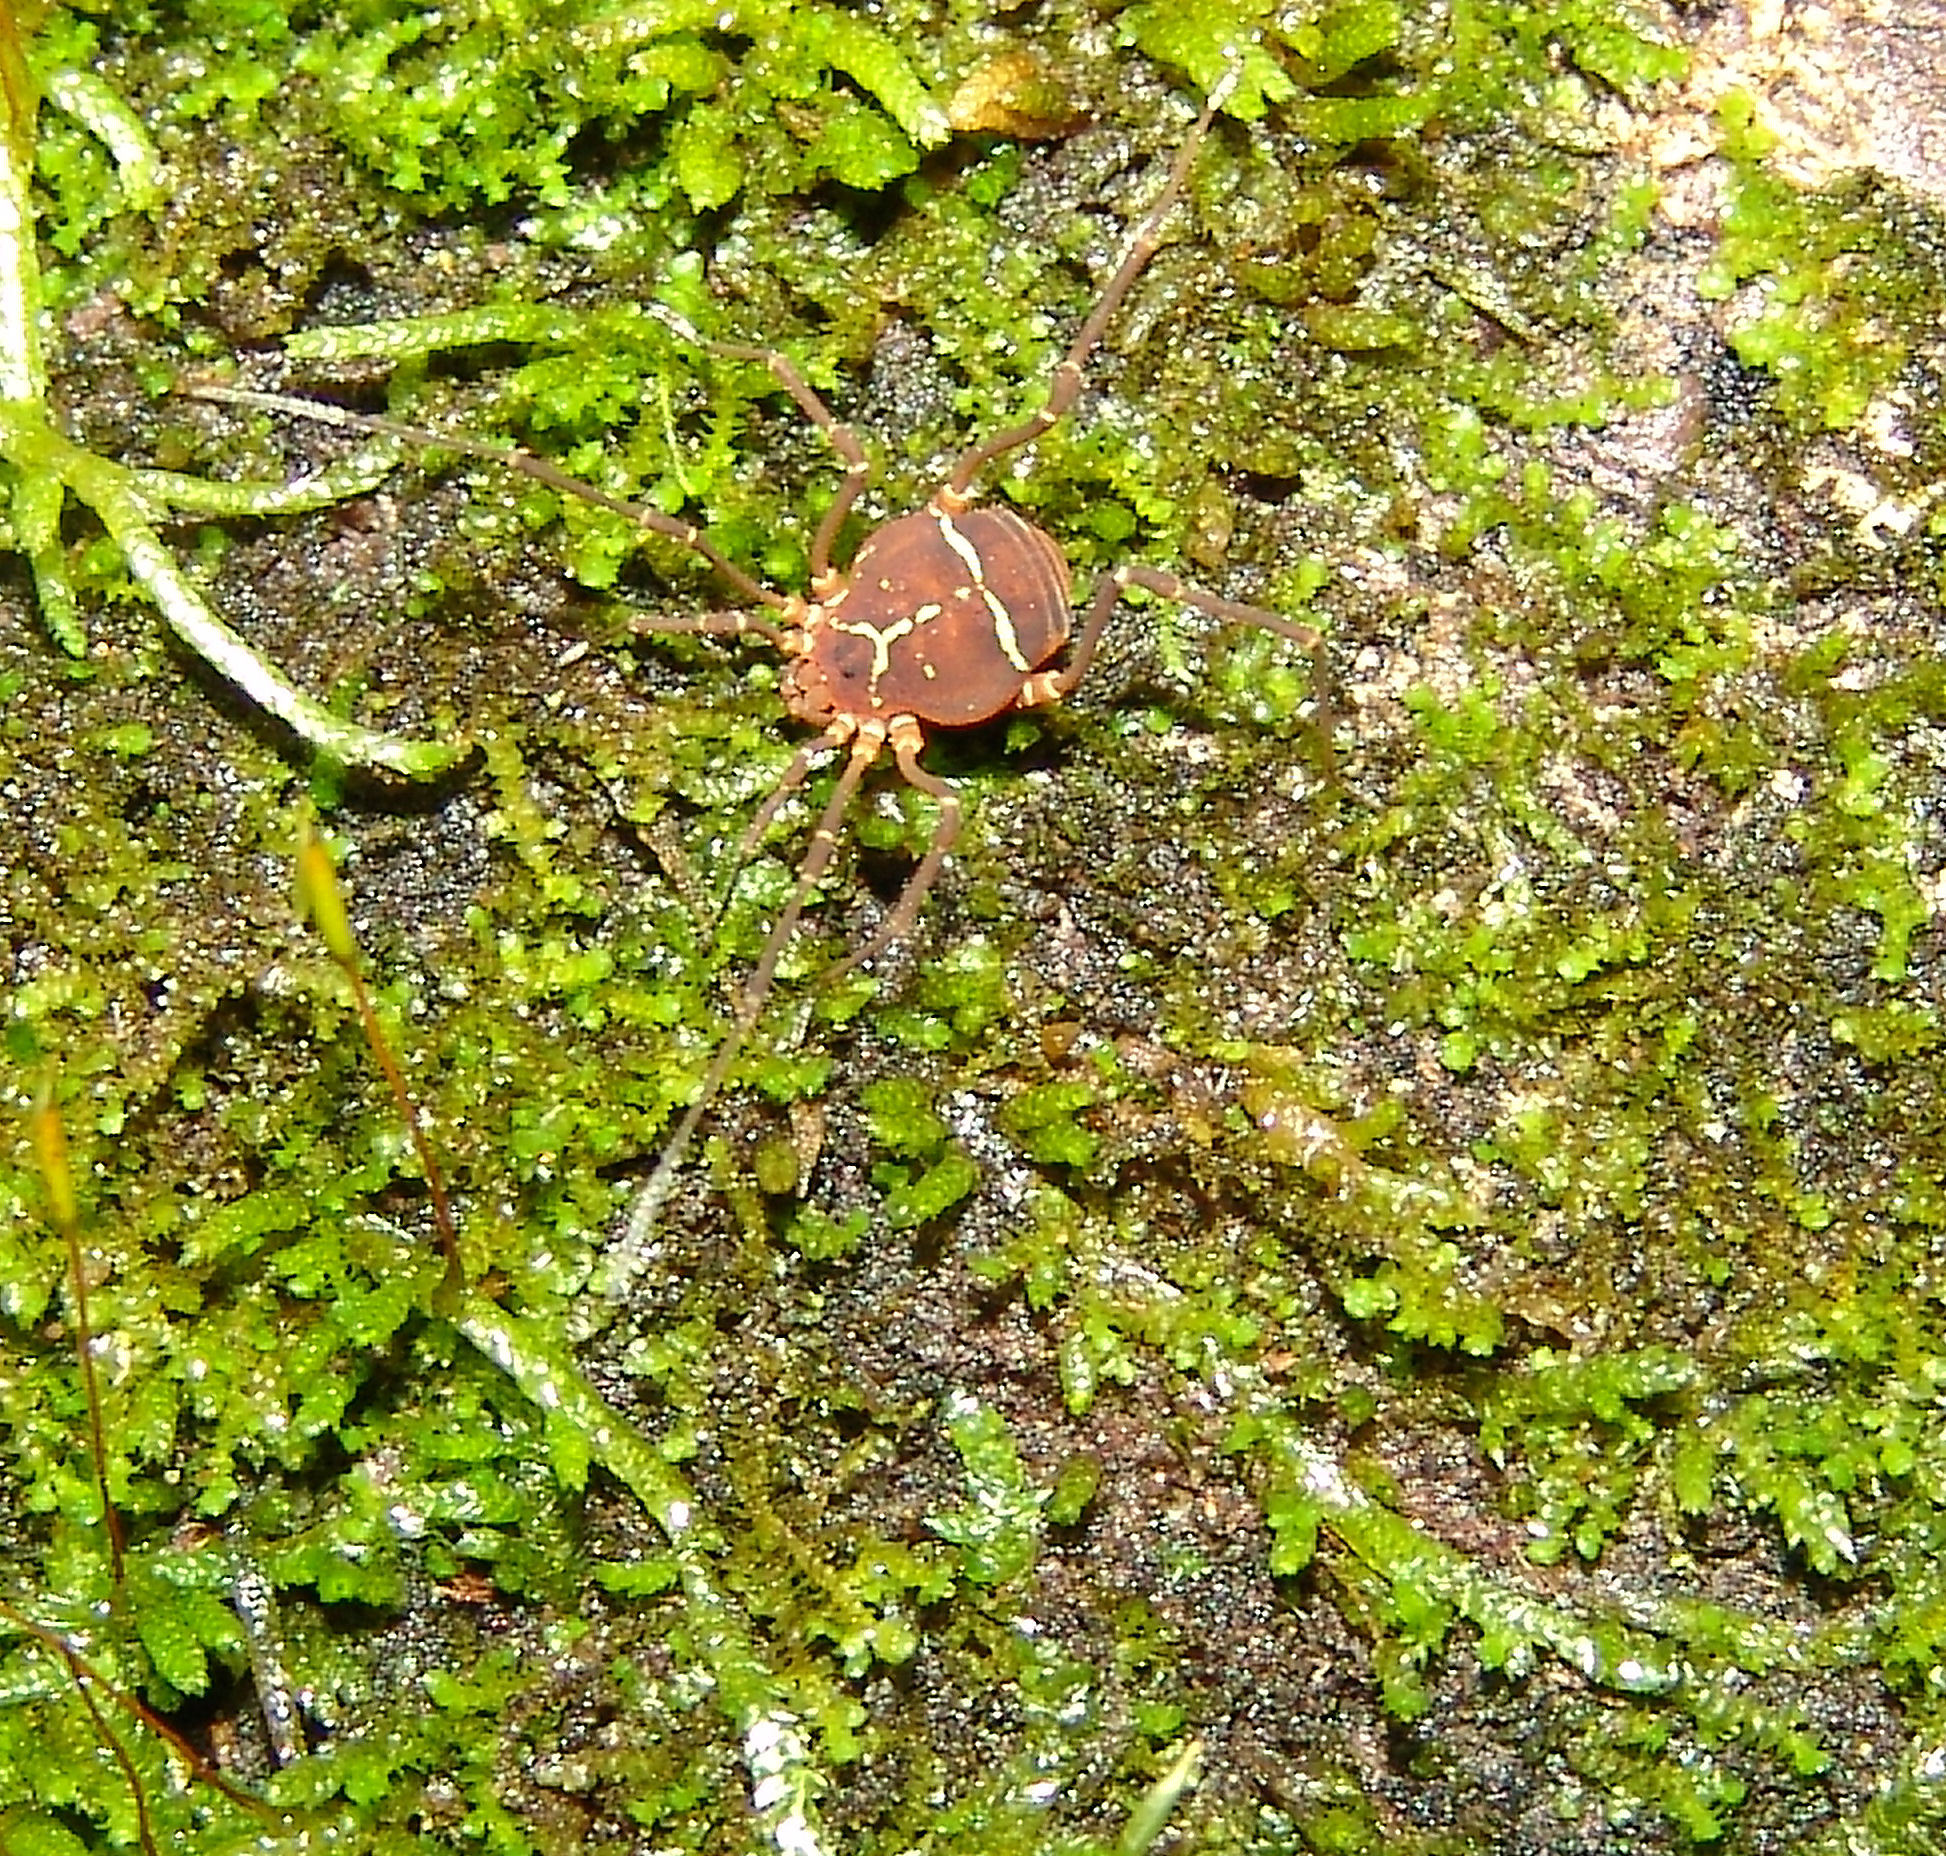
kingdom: Animalia
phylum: Arthropoda
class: Arachnida
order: Opiliones
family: Cosmetidae
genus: Libitioides
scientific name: Libitioides sayi
